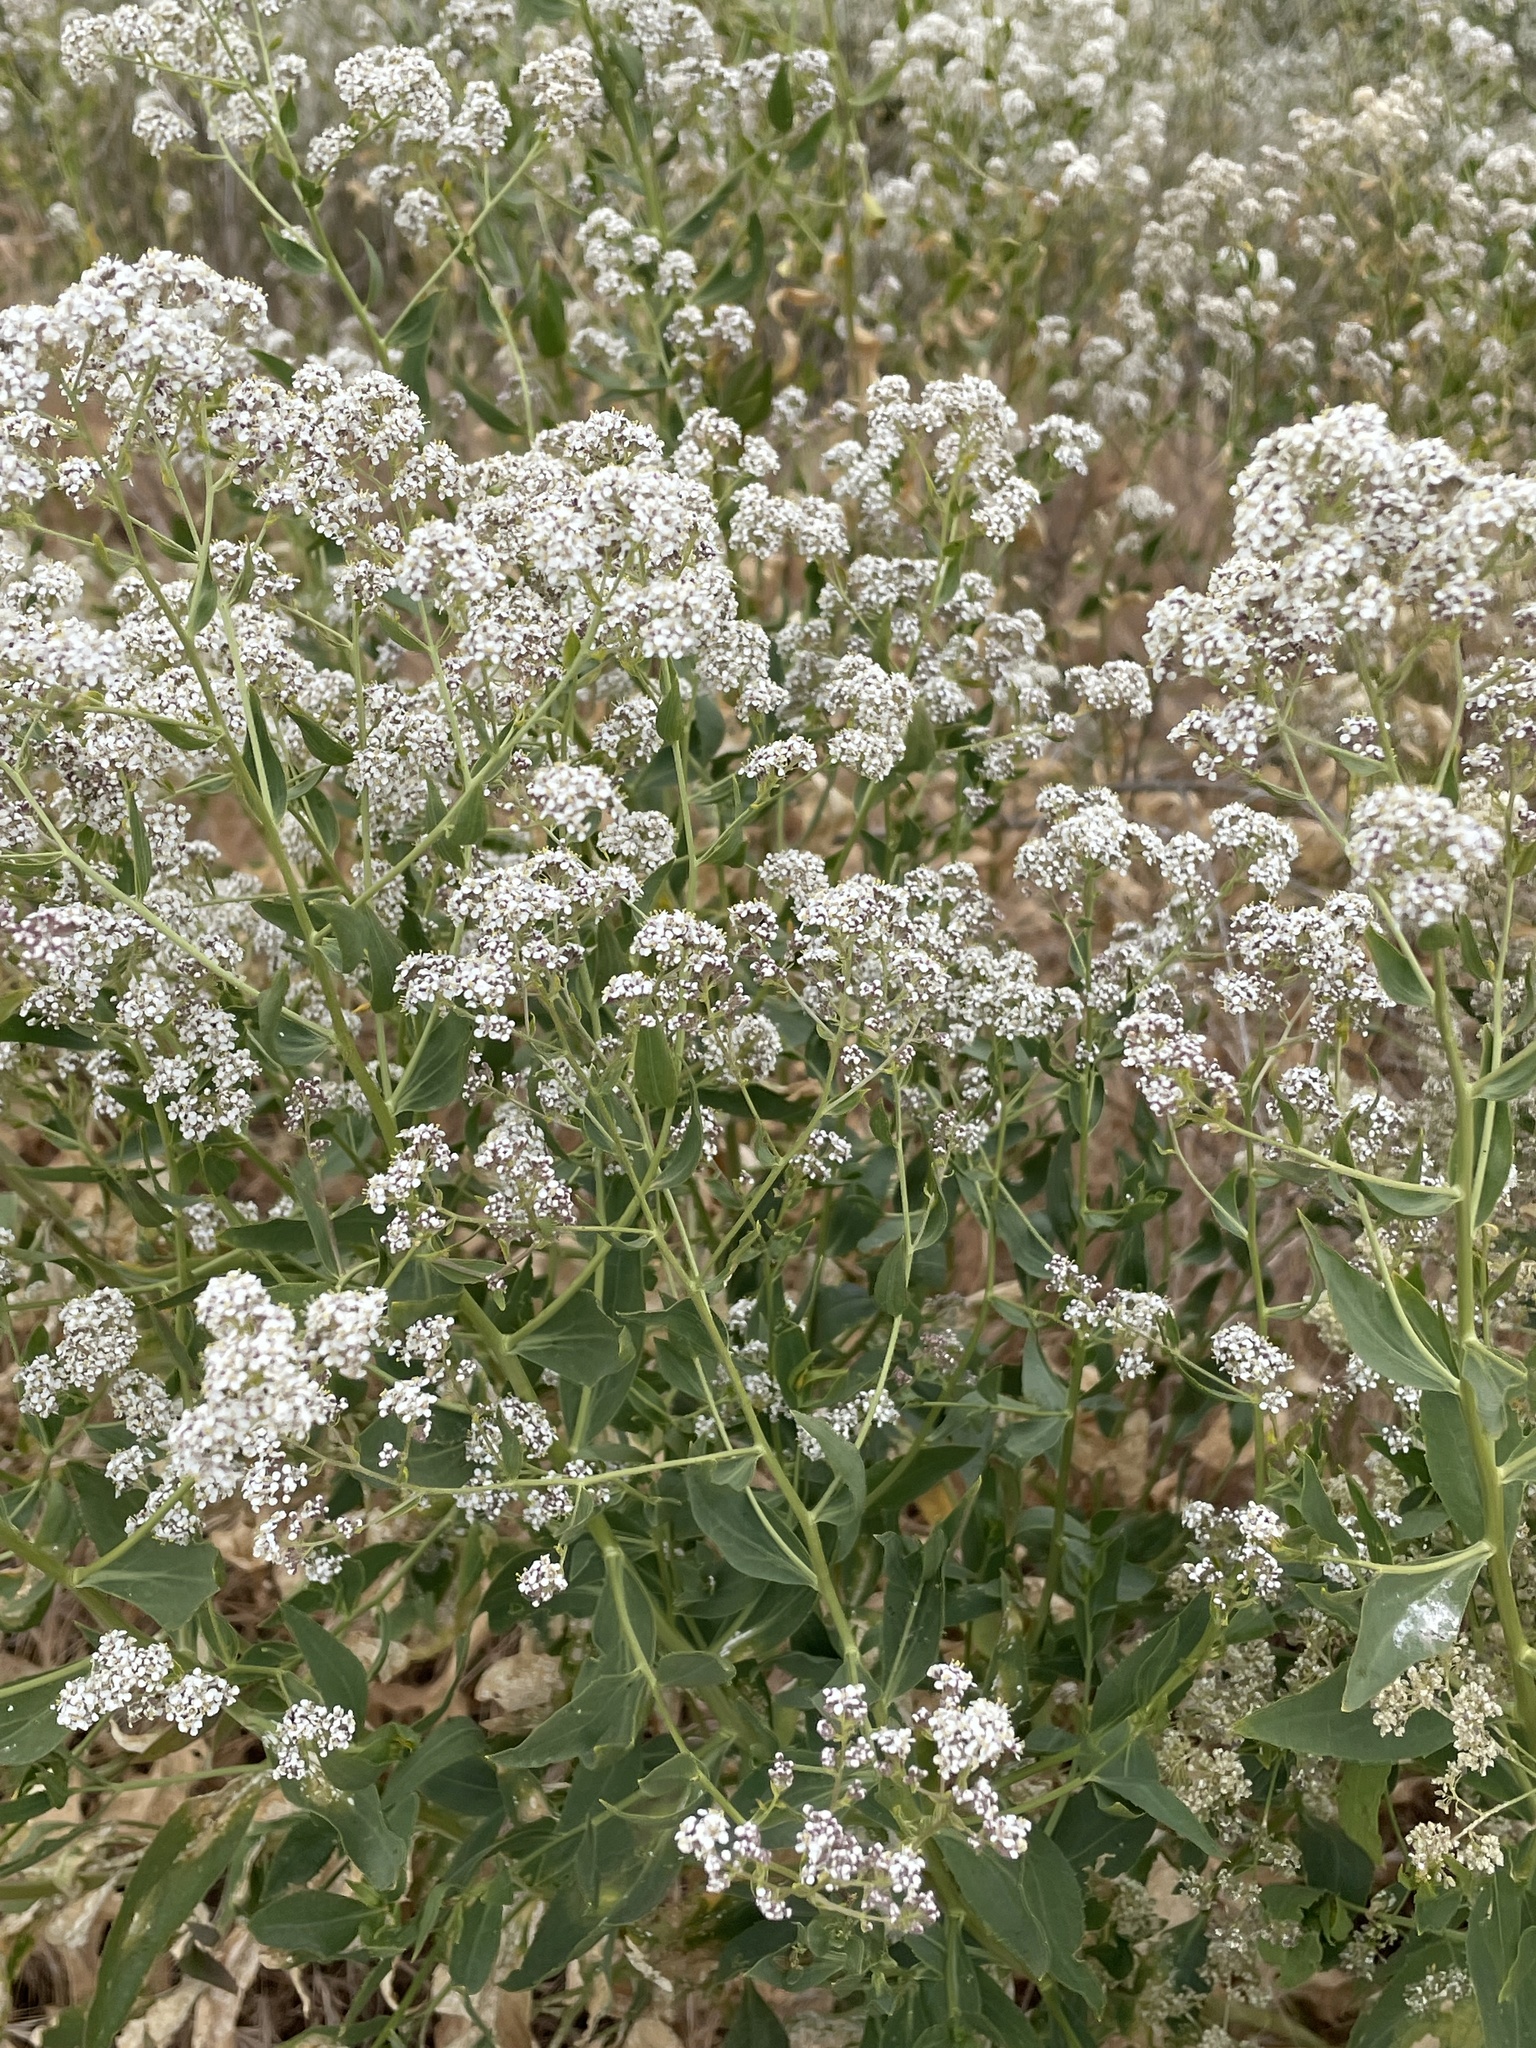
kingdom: Plantae
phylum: Tracheophyta
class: Magnoliopsida
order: Brassicales
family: Brassicaceae
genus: Lepidium
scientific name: Lepidium latifolium
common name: Dittander
